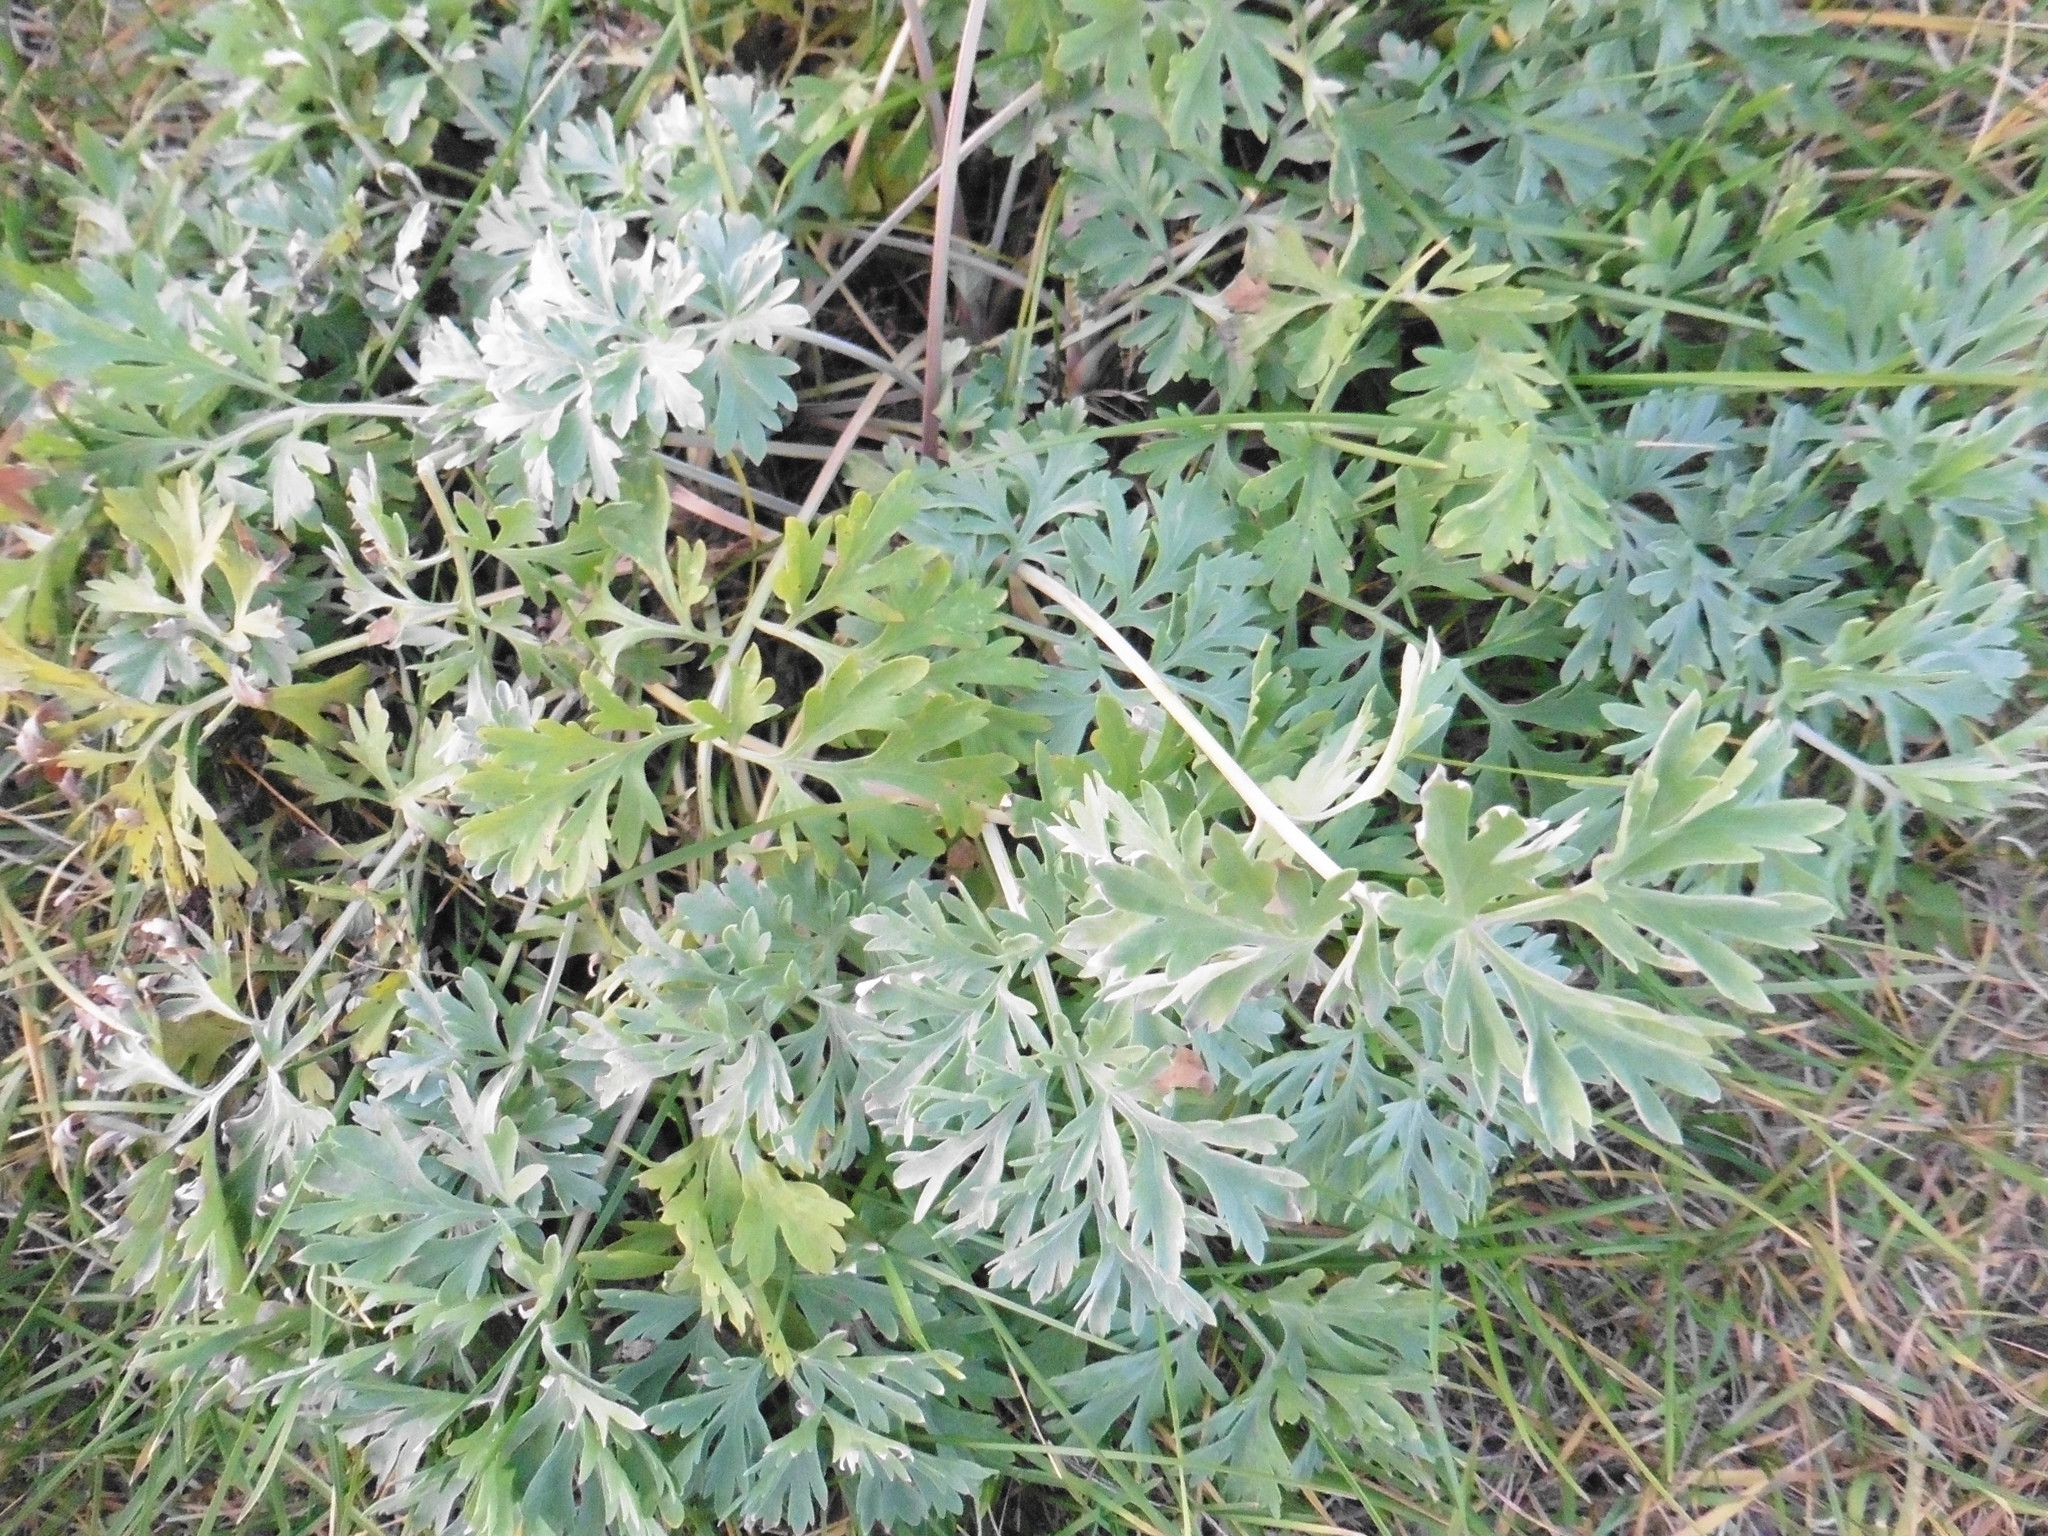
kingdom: Plantae
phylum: Tracheophyta
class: Magnoliopsida
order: Asterales
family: Asteraceae
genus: Artemisia
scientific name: Artemisia absinthium
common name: Wormwood
